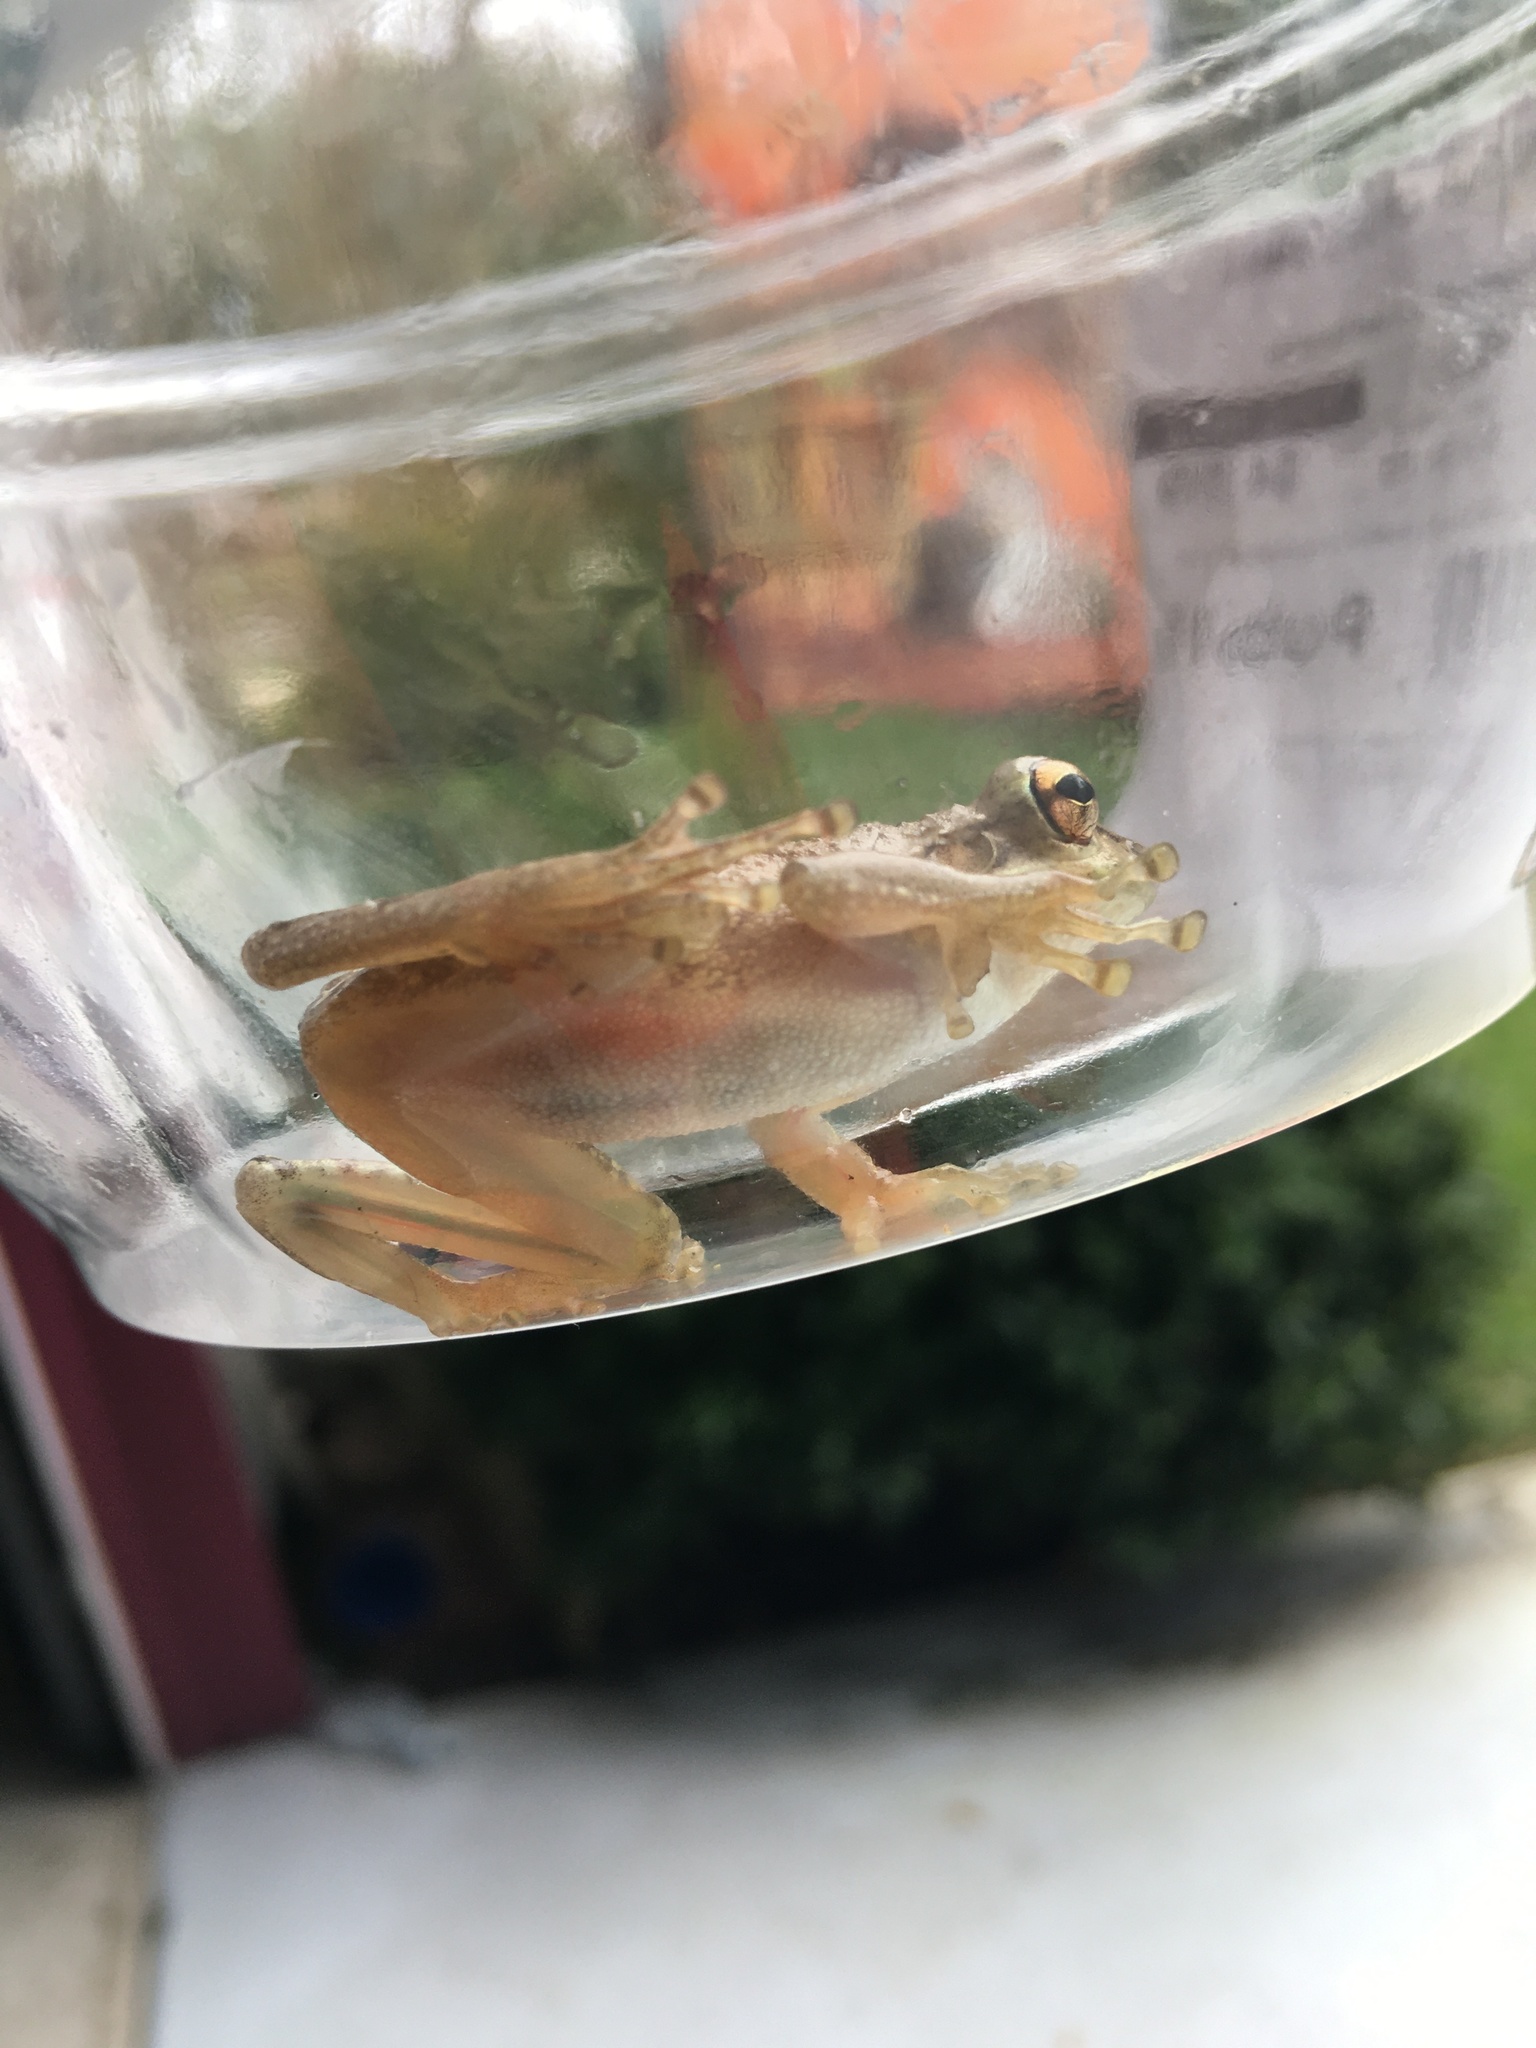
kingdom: Animalia
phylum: Chordata
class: Amphibia
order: Anura
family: Hylidae
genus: Osteopilus
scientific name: Osteopilus septentrionalis
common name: Cuban treefrog
